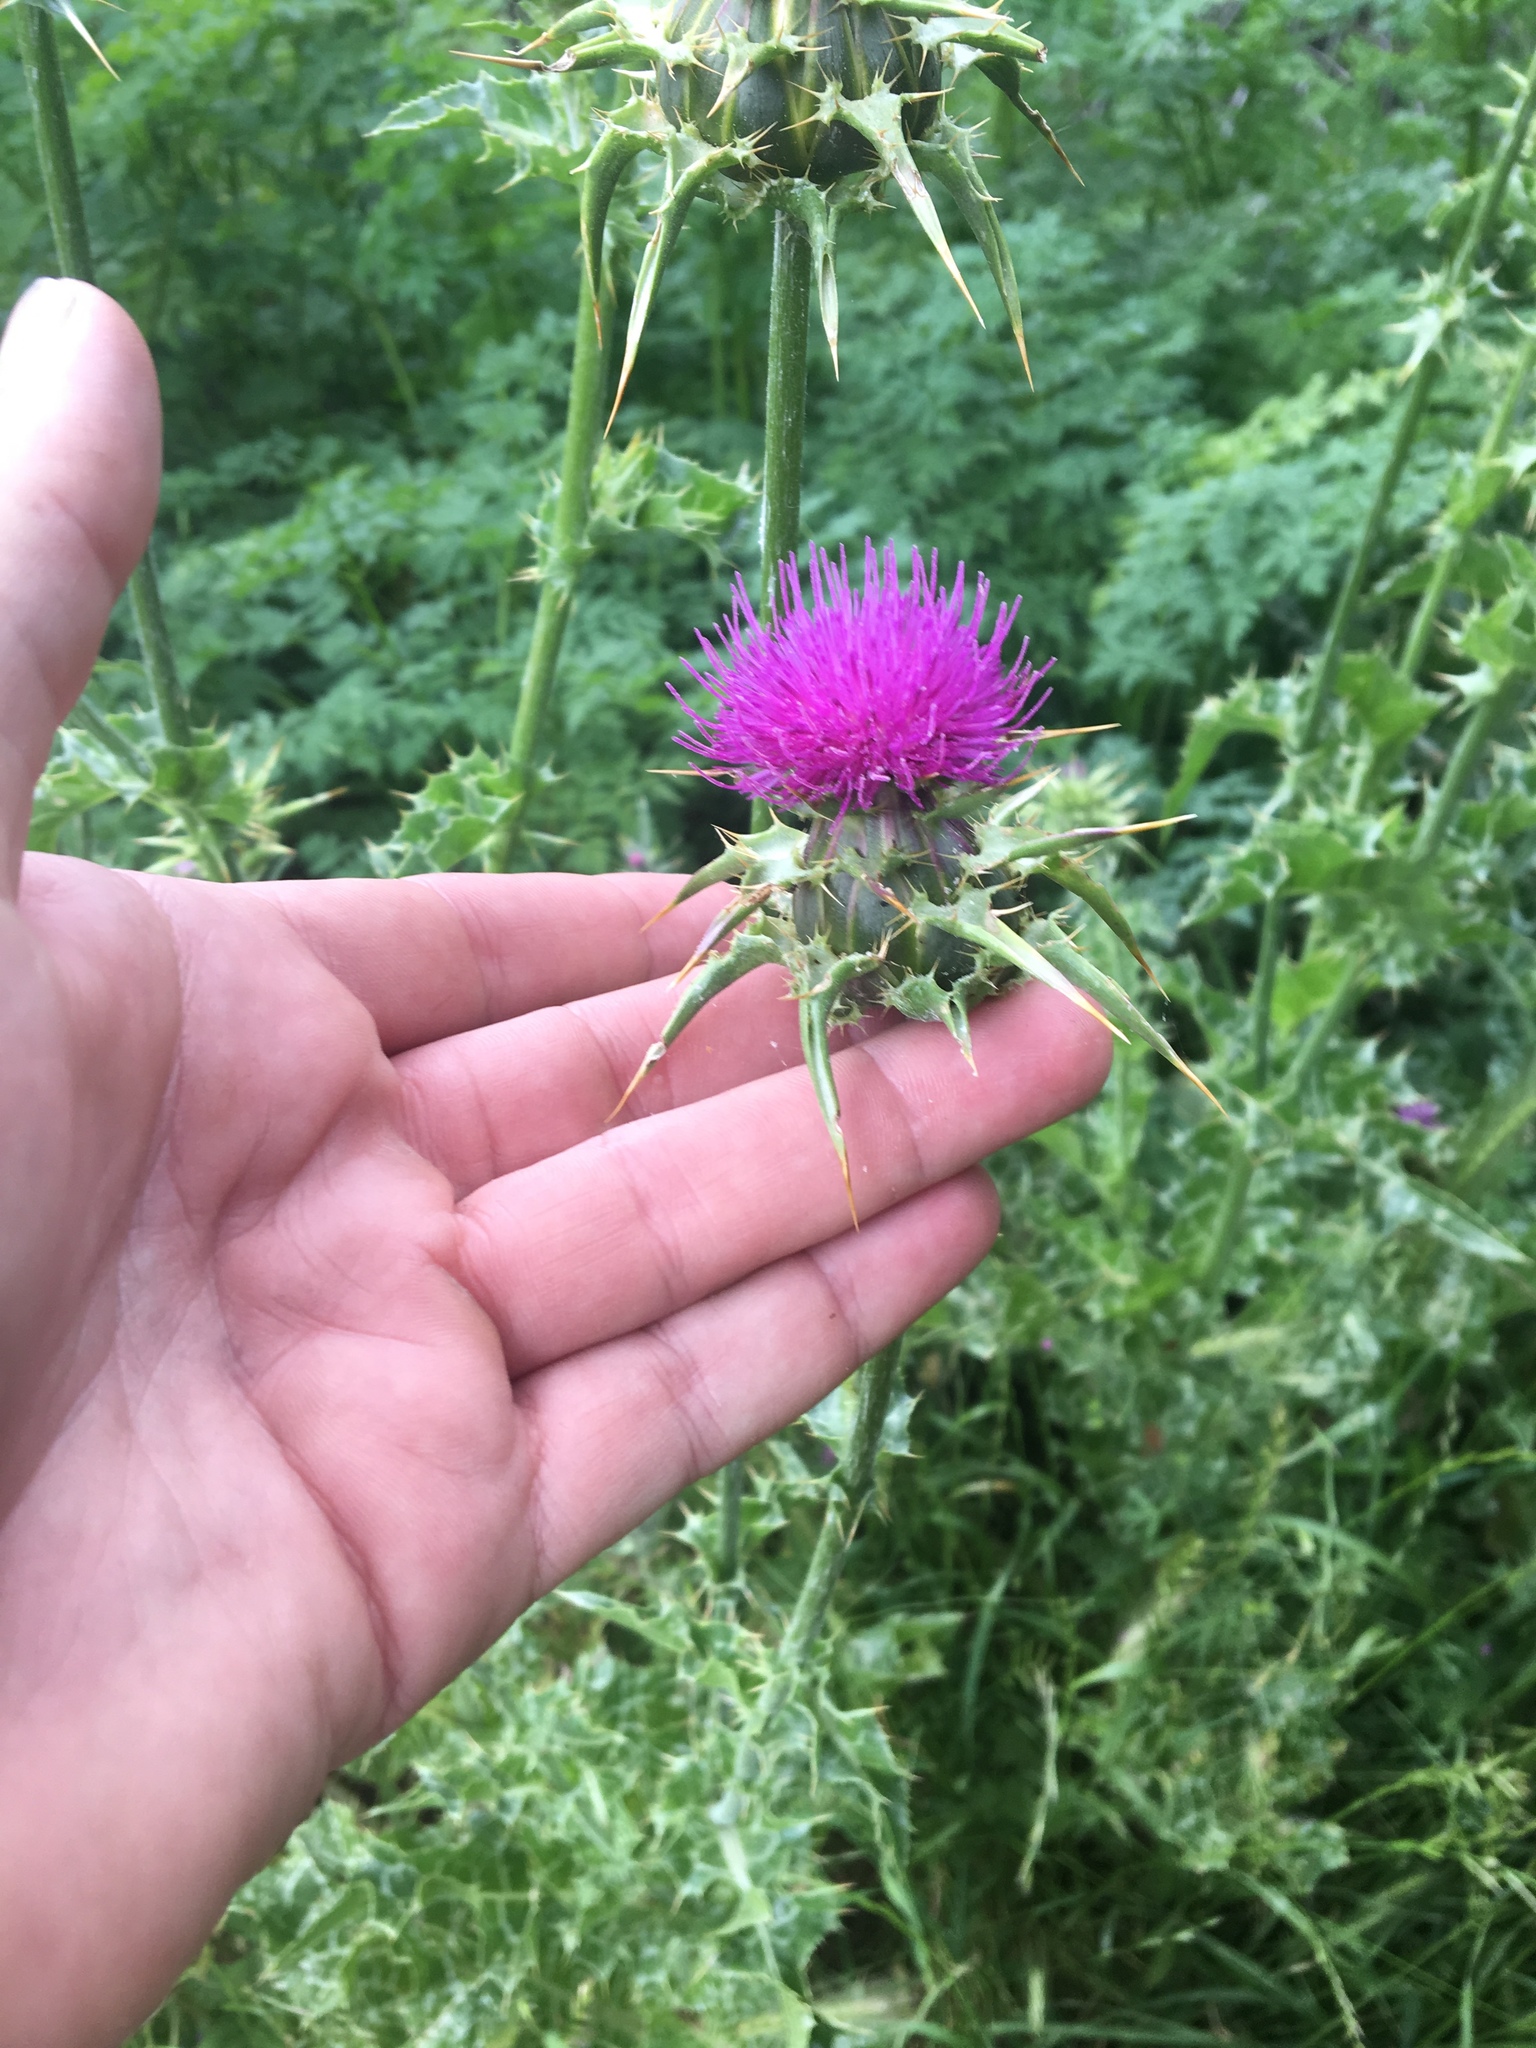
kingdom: Plantae
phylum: Tracheophyta
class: Magnoliopsida
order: Asterales
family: Asteraceae
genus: Silybum
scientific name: Silybum marianum
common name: Milk thistle
